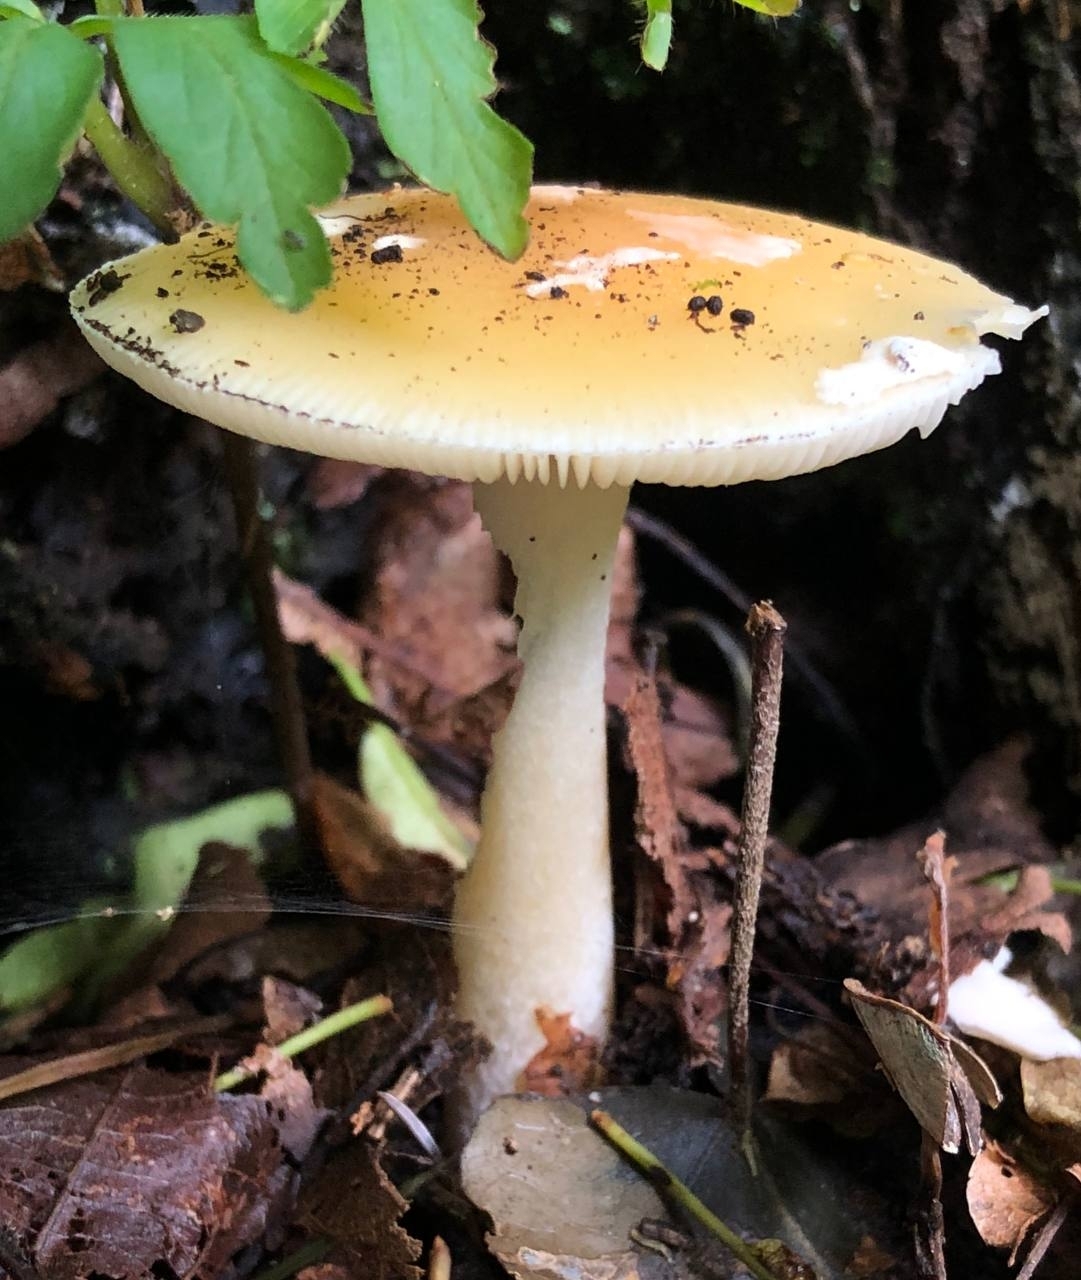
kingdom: Fungi
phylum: Basidiomycota
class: Agaricomycetes
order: Agaricales
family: Amanitaceae
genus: Amanita
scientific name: Amanita gemmata
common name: Jewelled amanita
